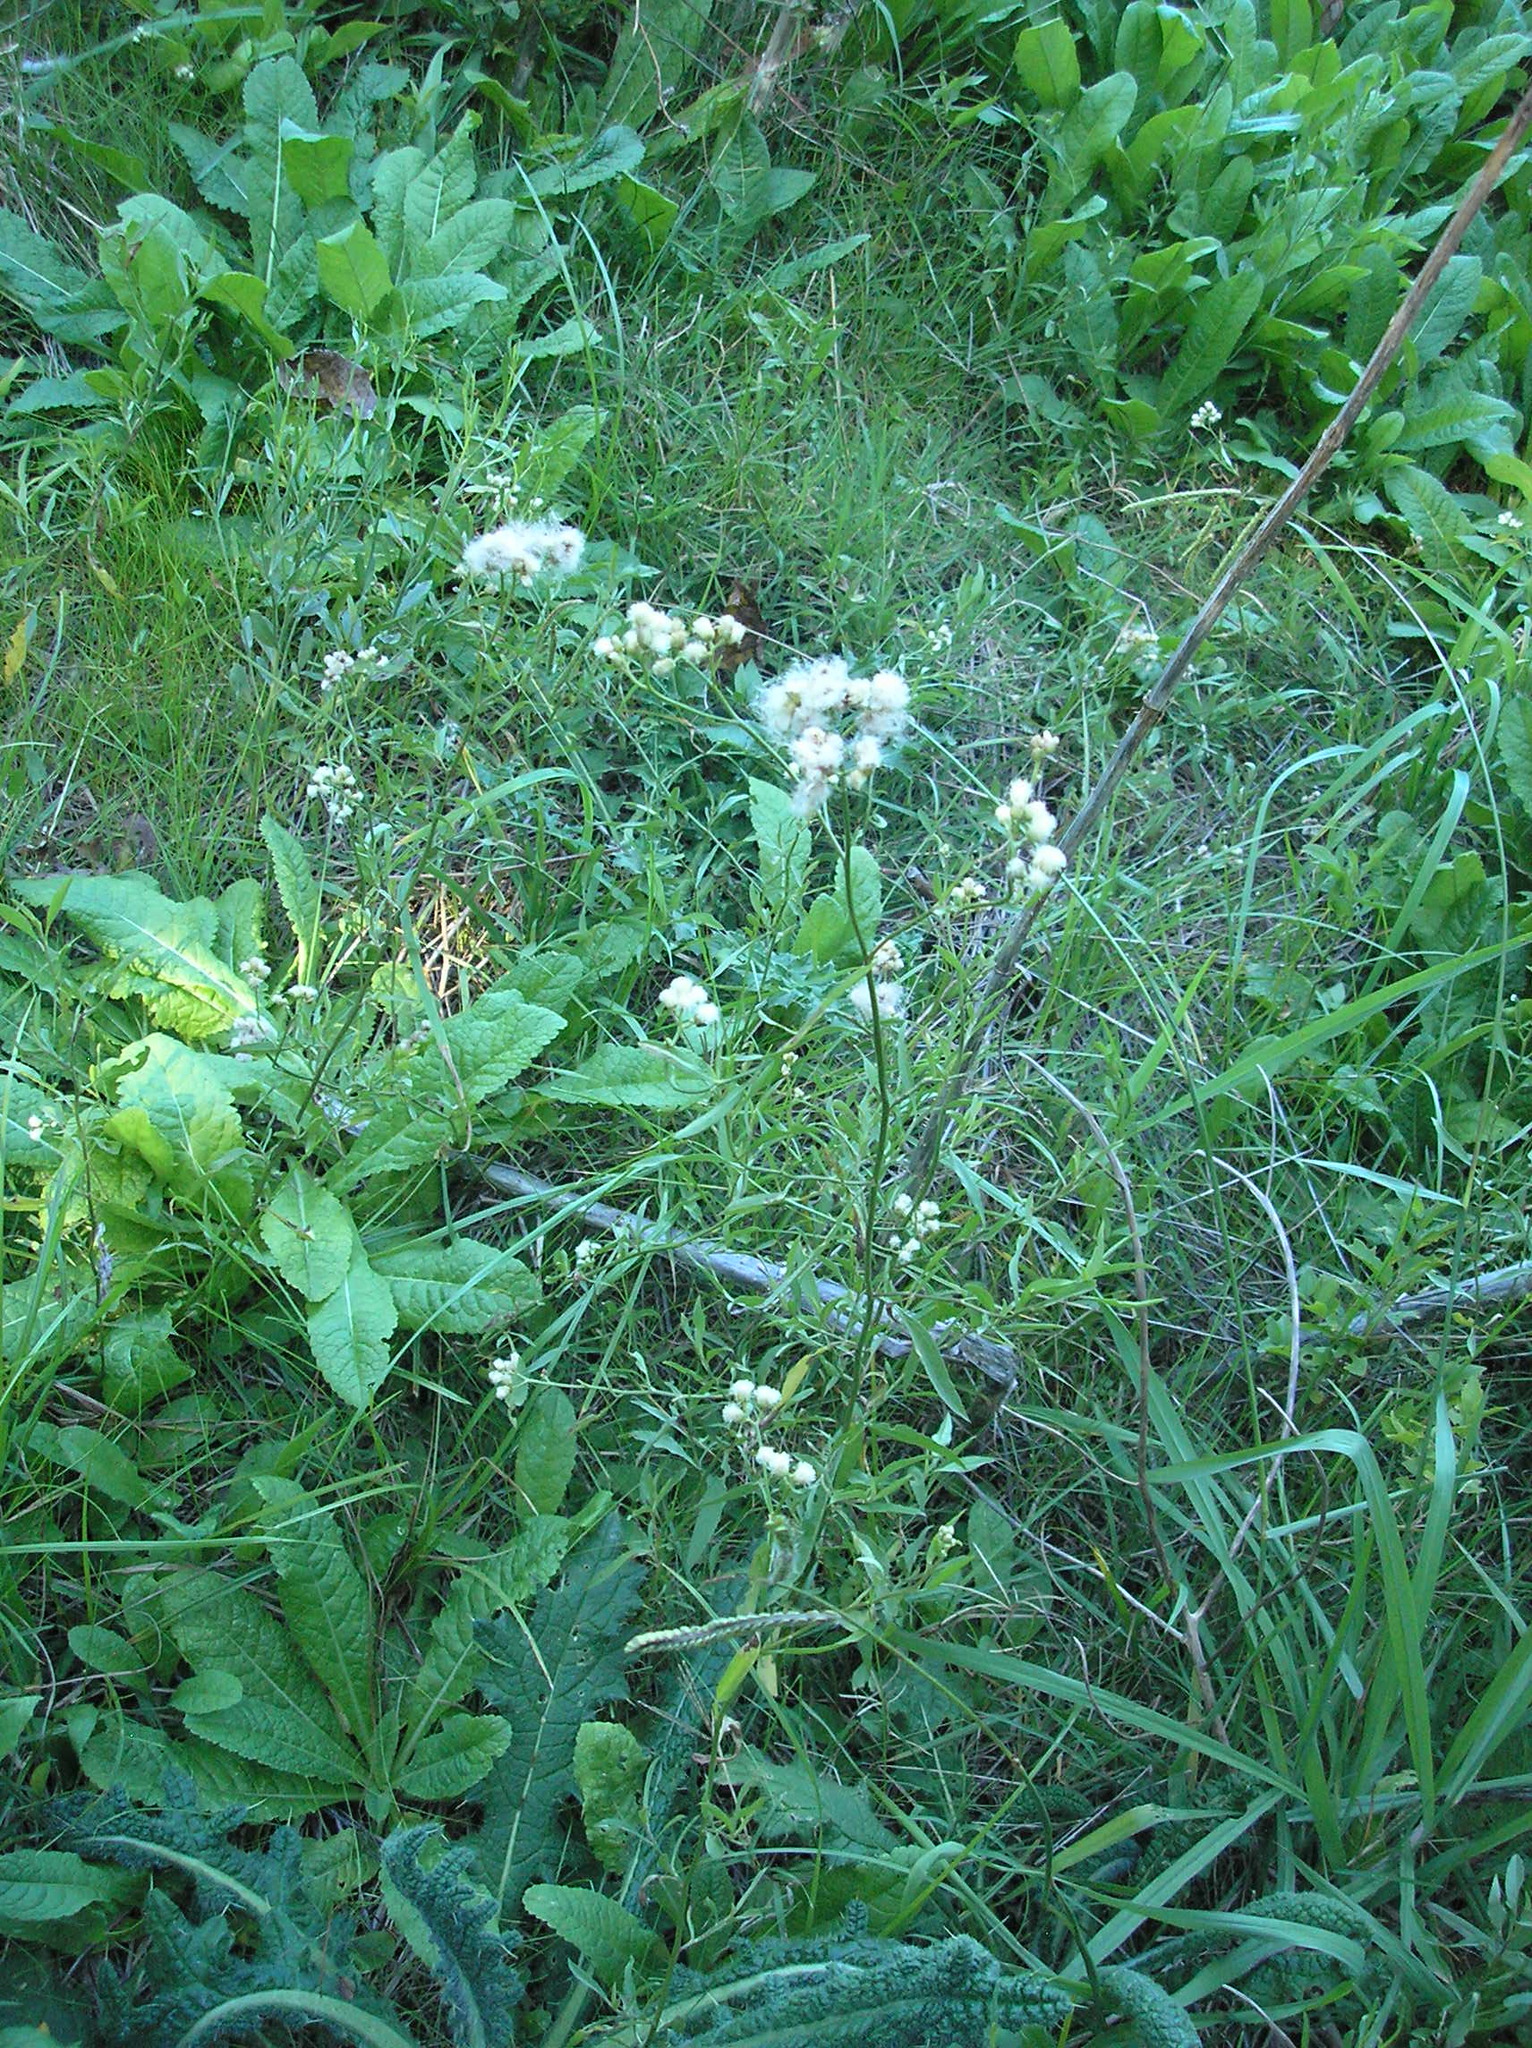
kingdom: Plantae
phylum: Tracheophyta
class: Magnoliopsida
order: Asterales
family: Asteraceae
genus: Baccharis
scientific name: Baccharis glutinosa
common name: Saltmarsh baccharis
